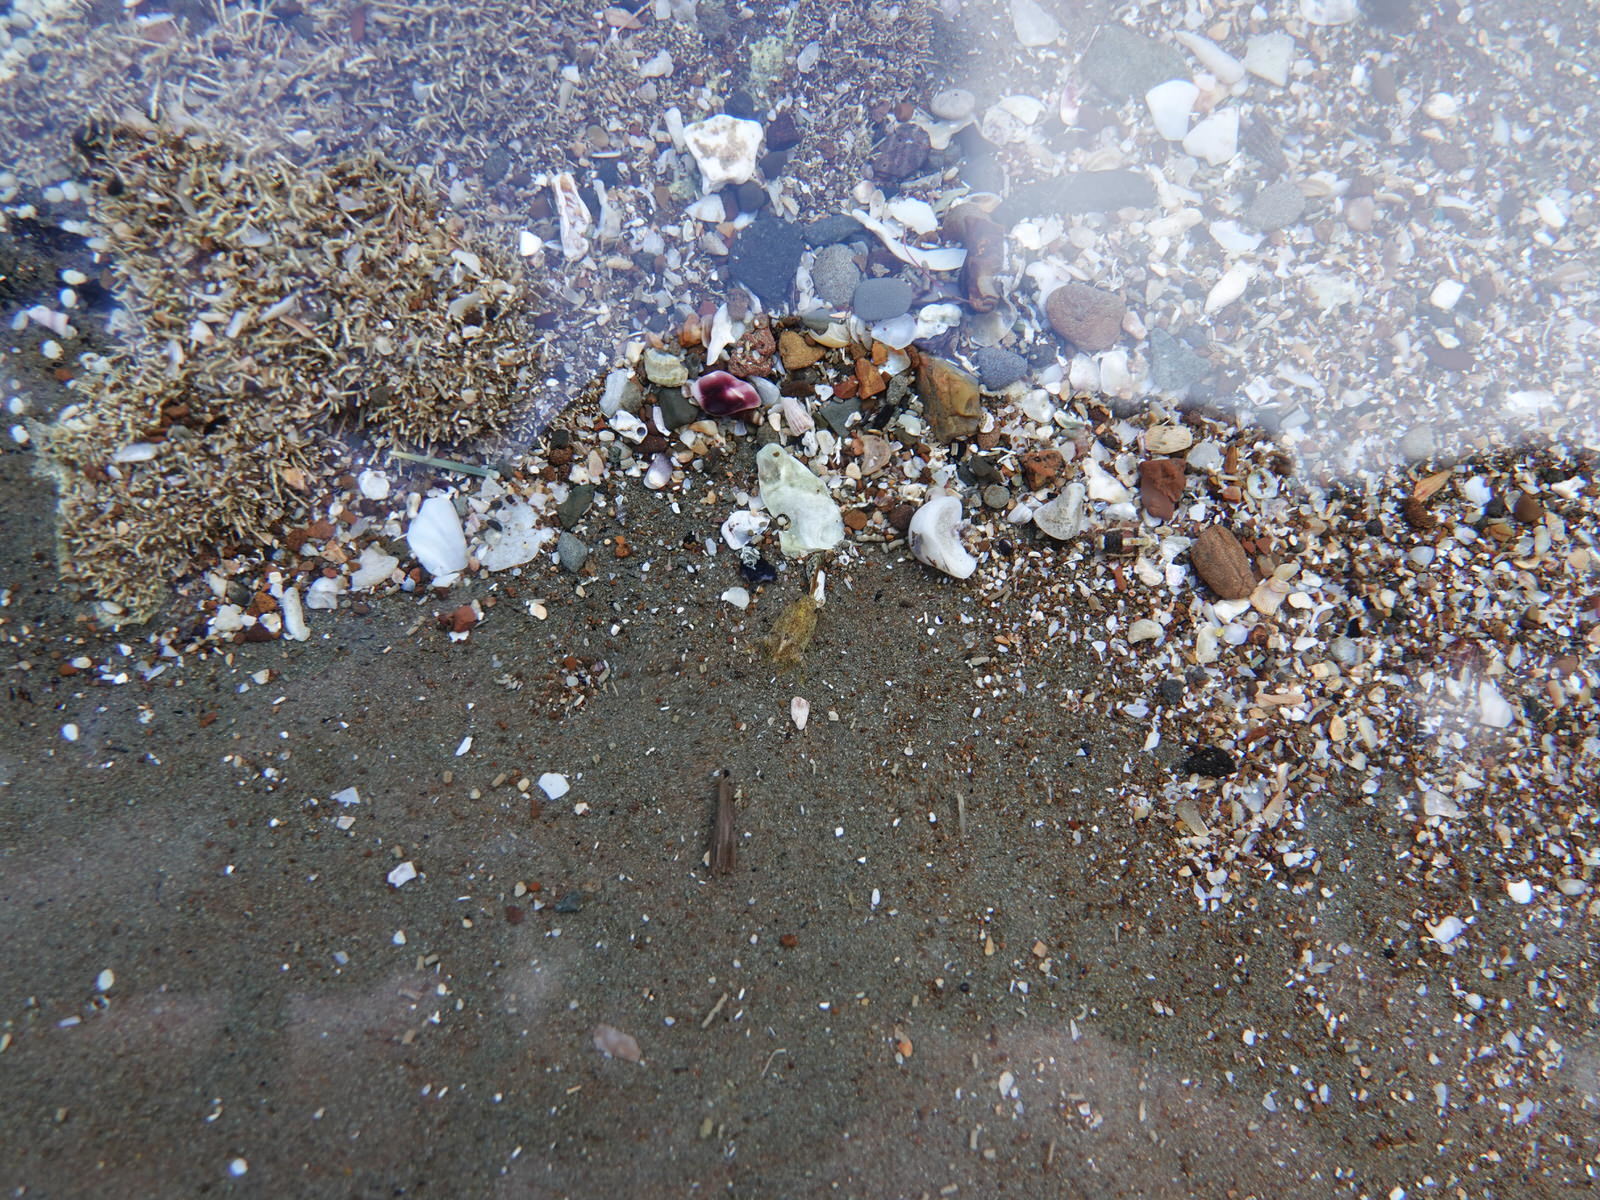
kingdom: Animalia
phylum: Arthropoda
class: Malacostraca
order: Isopoda
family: Sphaeromatidae
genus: Isocladus
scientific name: Isocladus armatus
